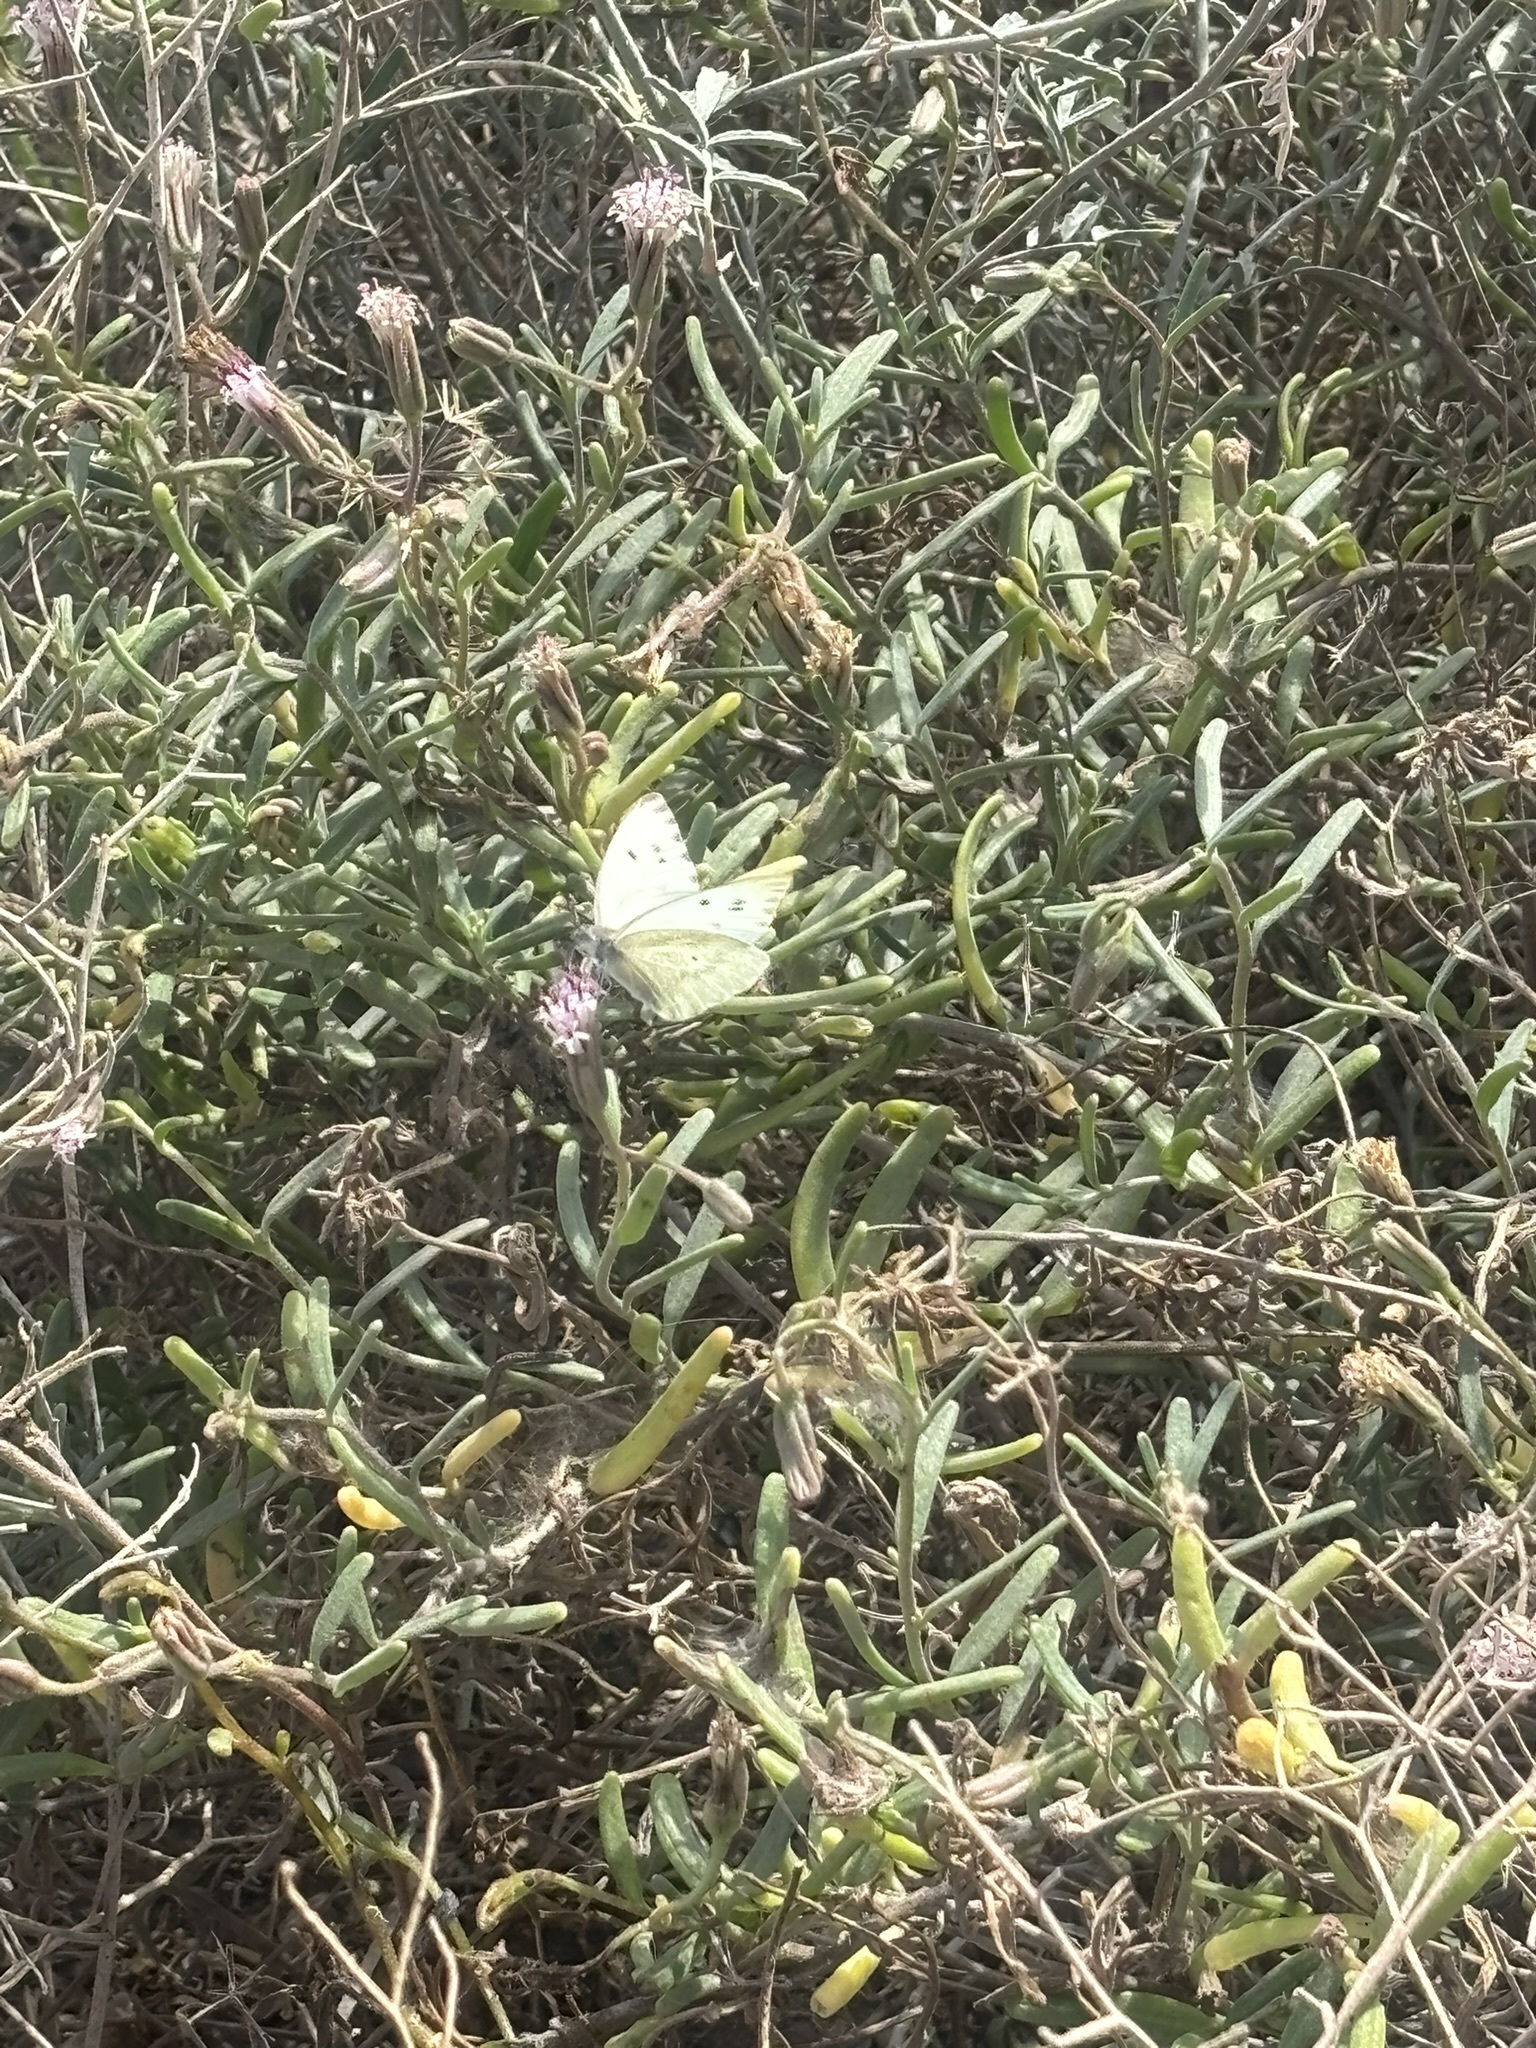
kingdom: Animalia
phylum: Arthropoda
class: Insecta
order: Lepidoptera
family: Pieridae
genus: Ganyra
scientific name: Ganyra howarthi
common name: Howarth's white
